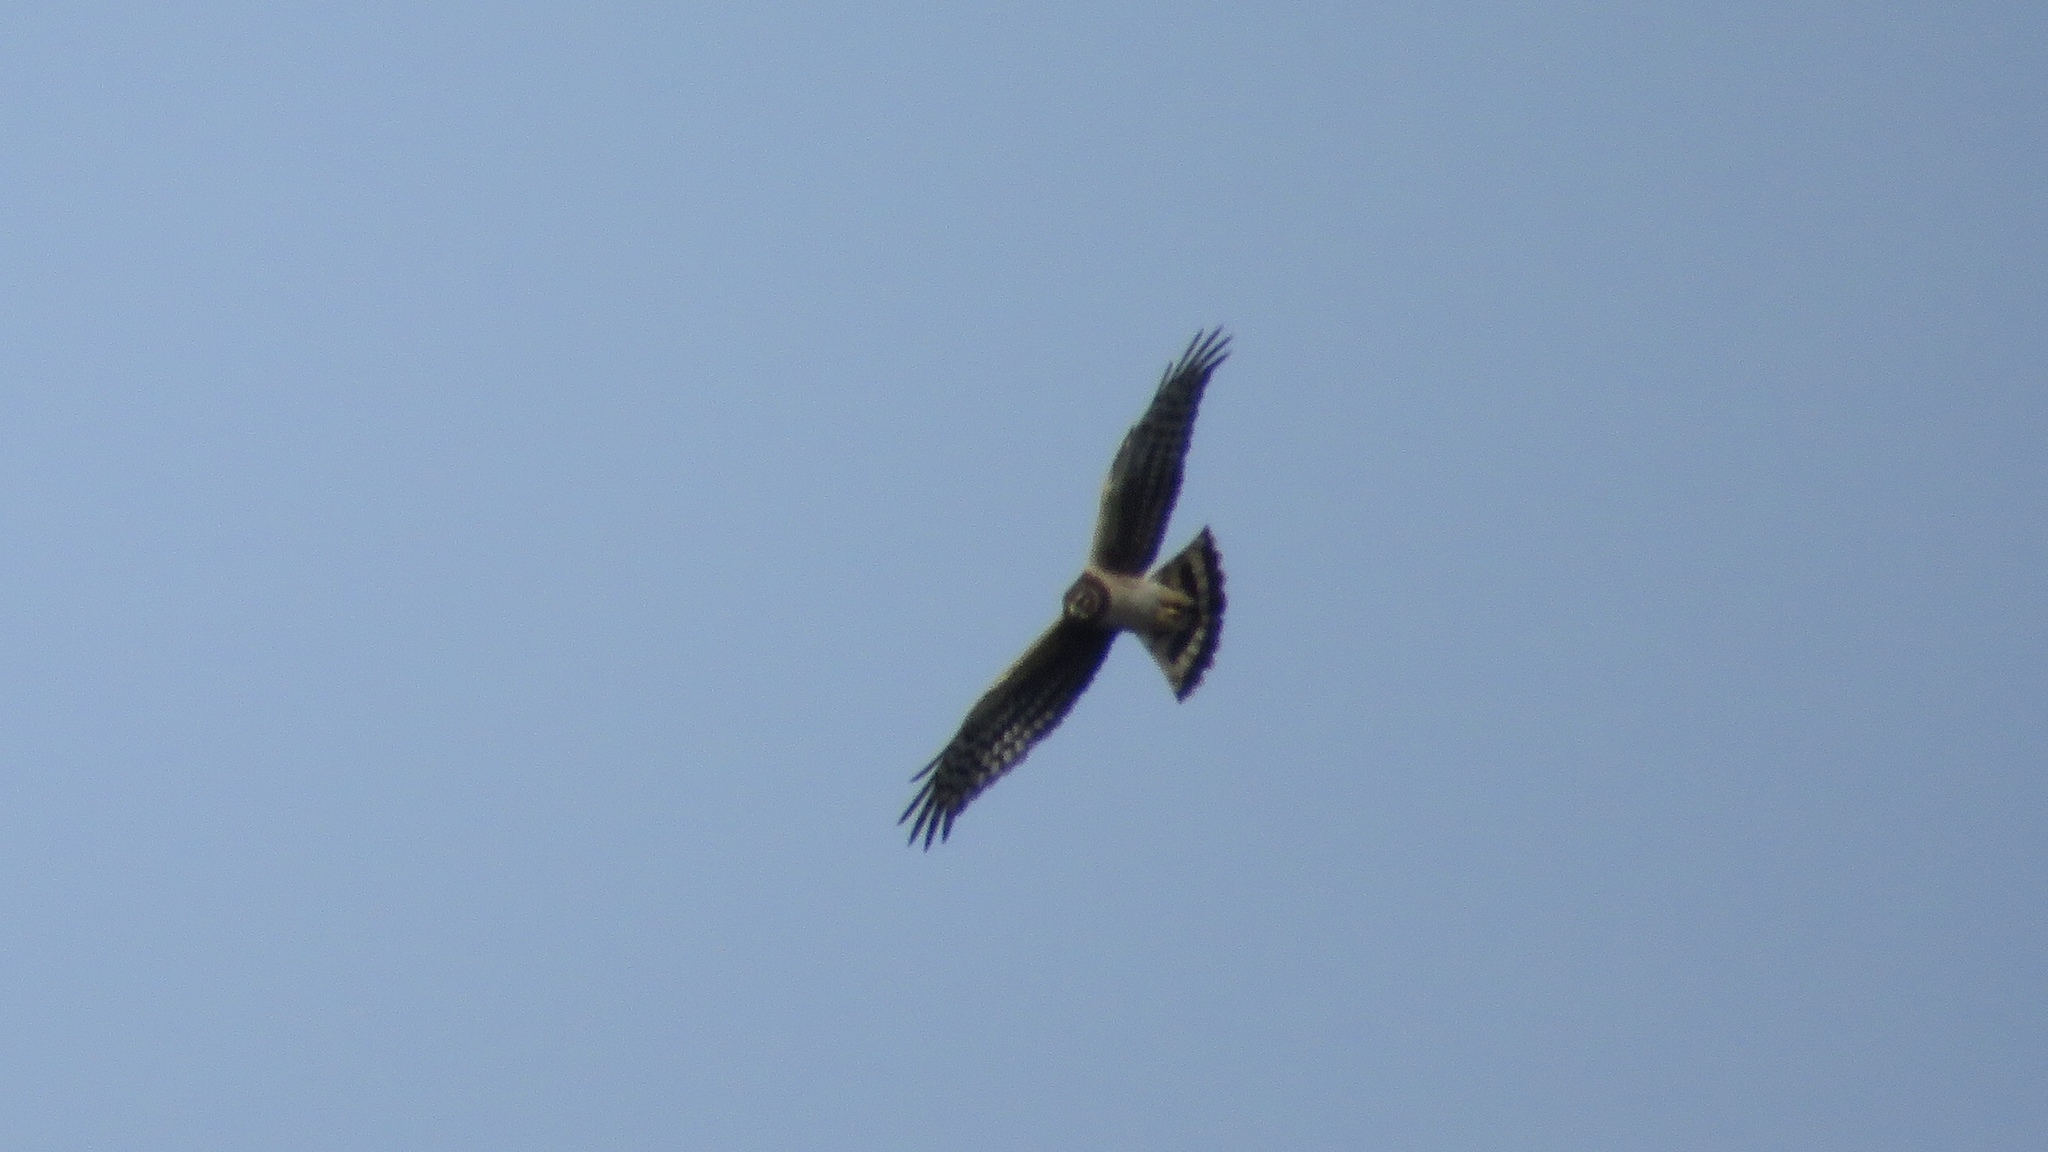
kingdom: Animalia
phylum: Chordata
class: Aves
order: Accipitriformes
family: Accipitridae
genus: Circus
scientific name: Circus cyaneus
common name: Hen harrier
